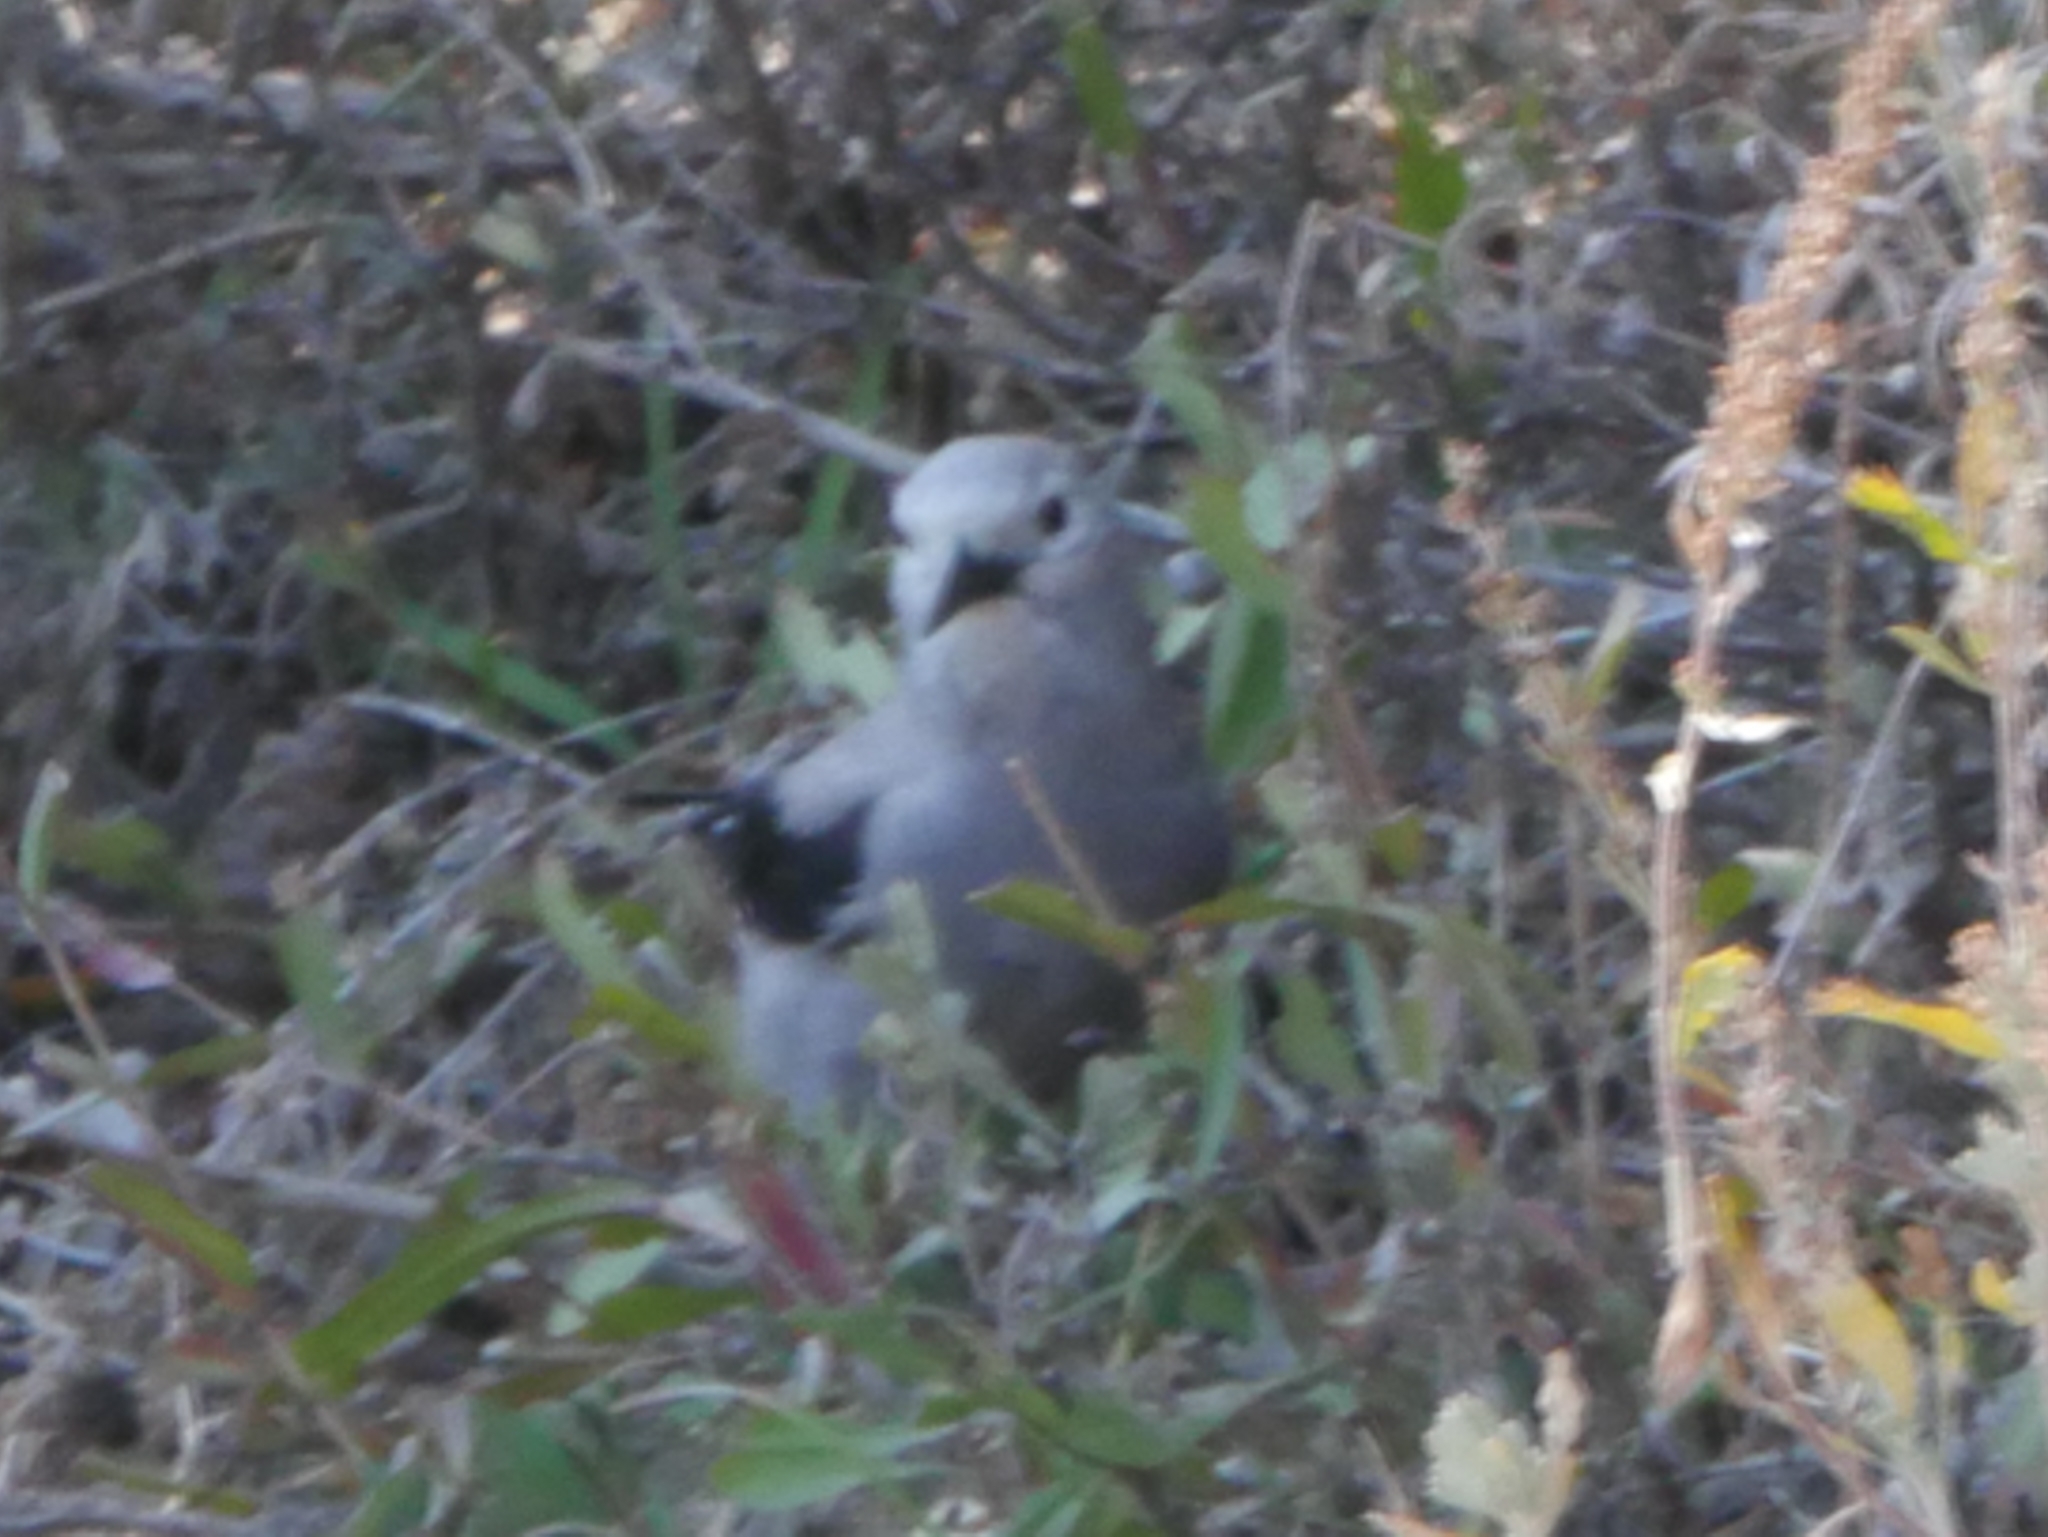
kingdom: Animalia
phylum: Chordata
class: Aves
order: Passeriformes
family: Corvidae
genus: Nucifraga
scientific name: Nucifraga columbiana
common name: Clark's nutcracker
